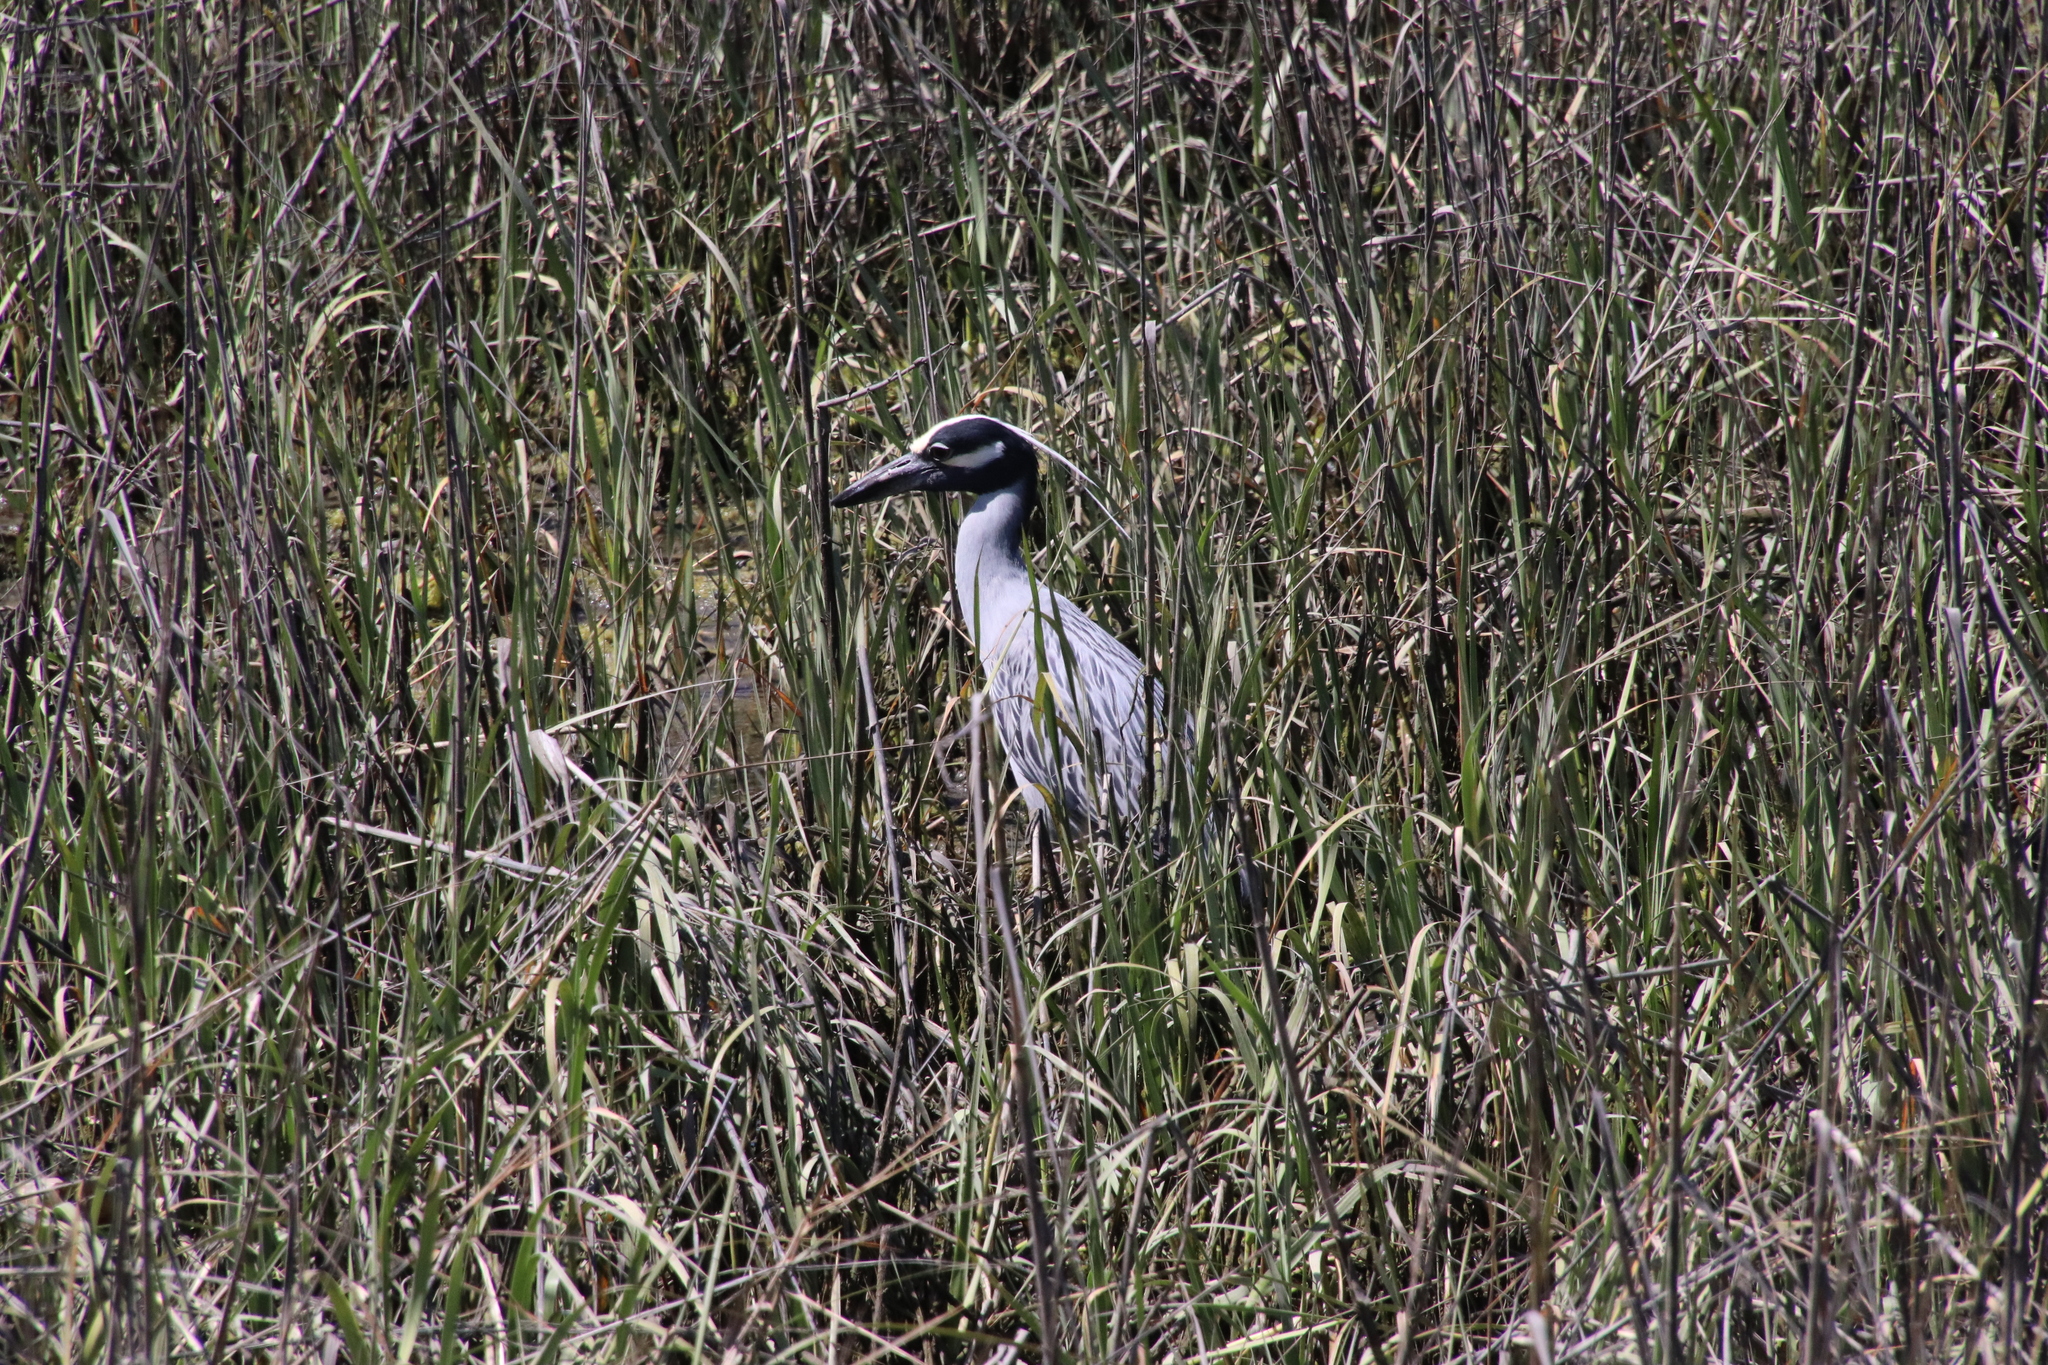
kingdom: Animalia
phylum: Chordata
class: Aves
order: Pelecaniformes
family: Ardeidae
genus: Nyctanassa
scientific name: Nyctanassa violacea
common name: Yellow-crowned night heron
